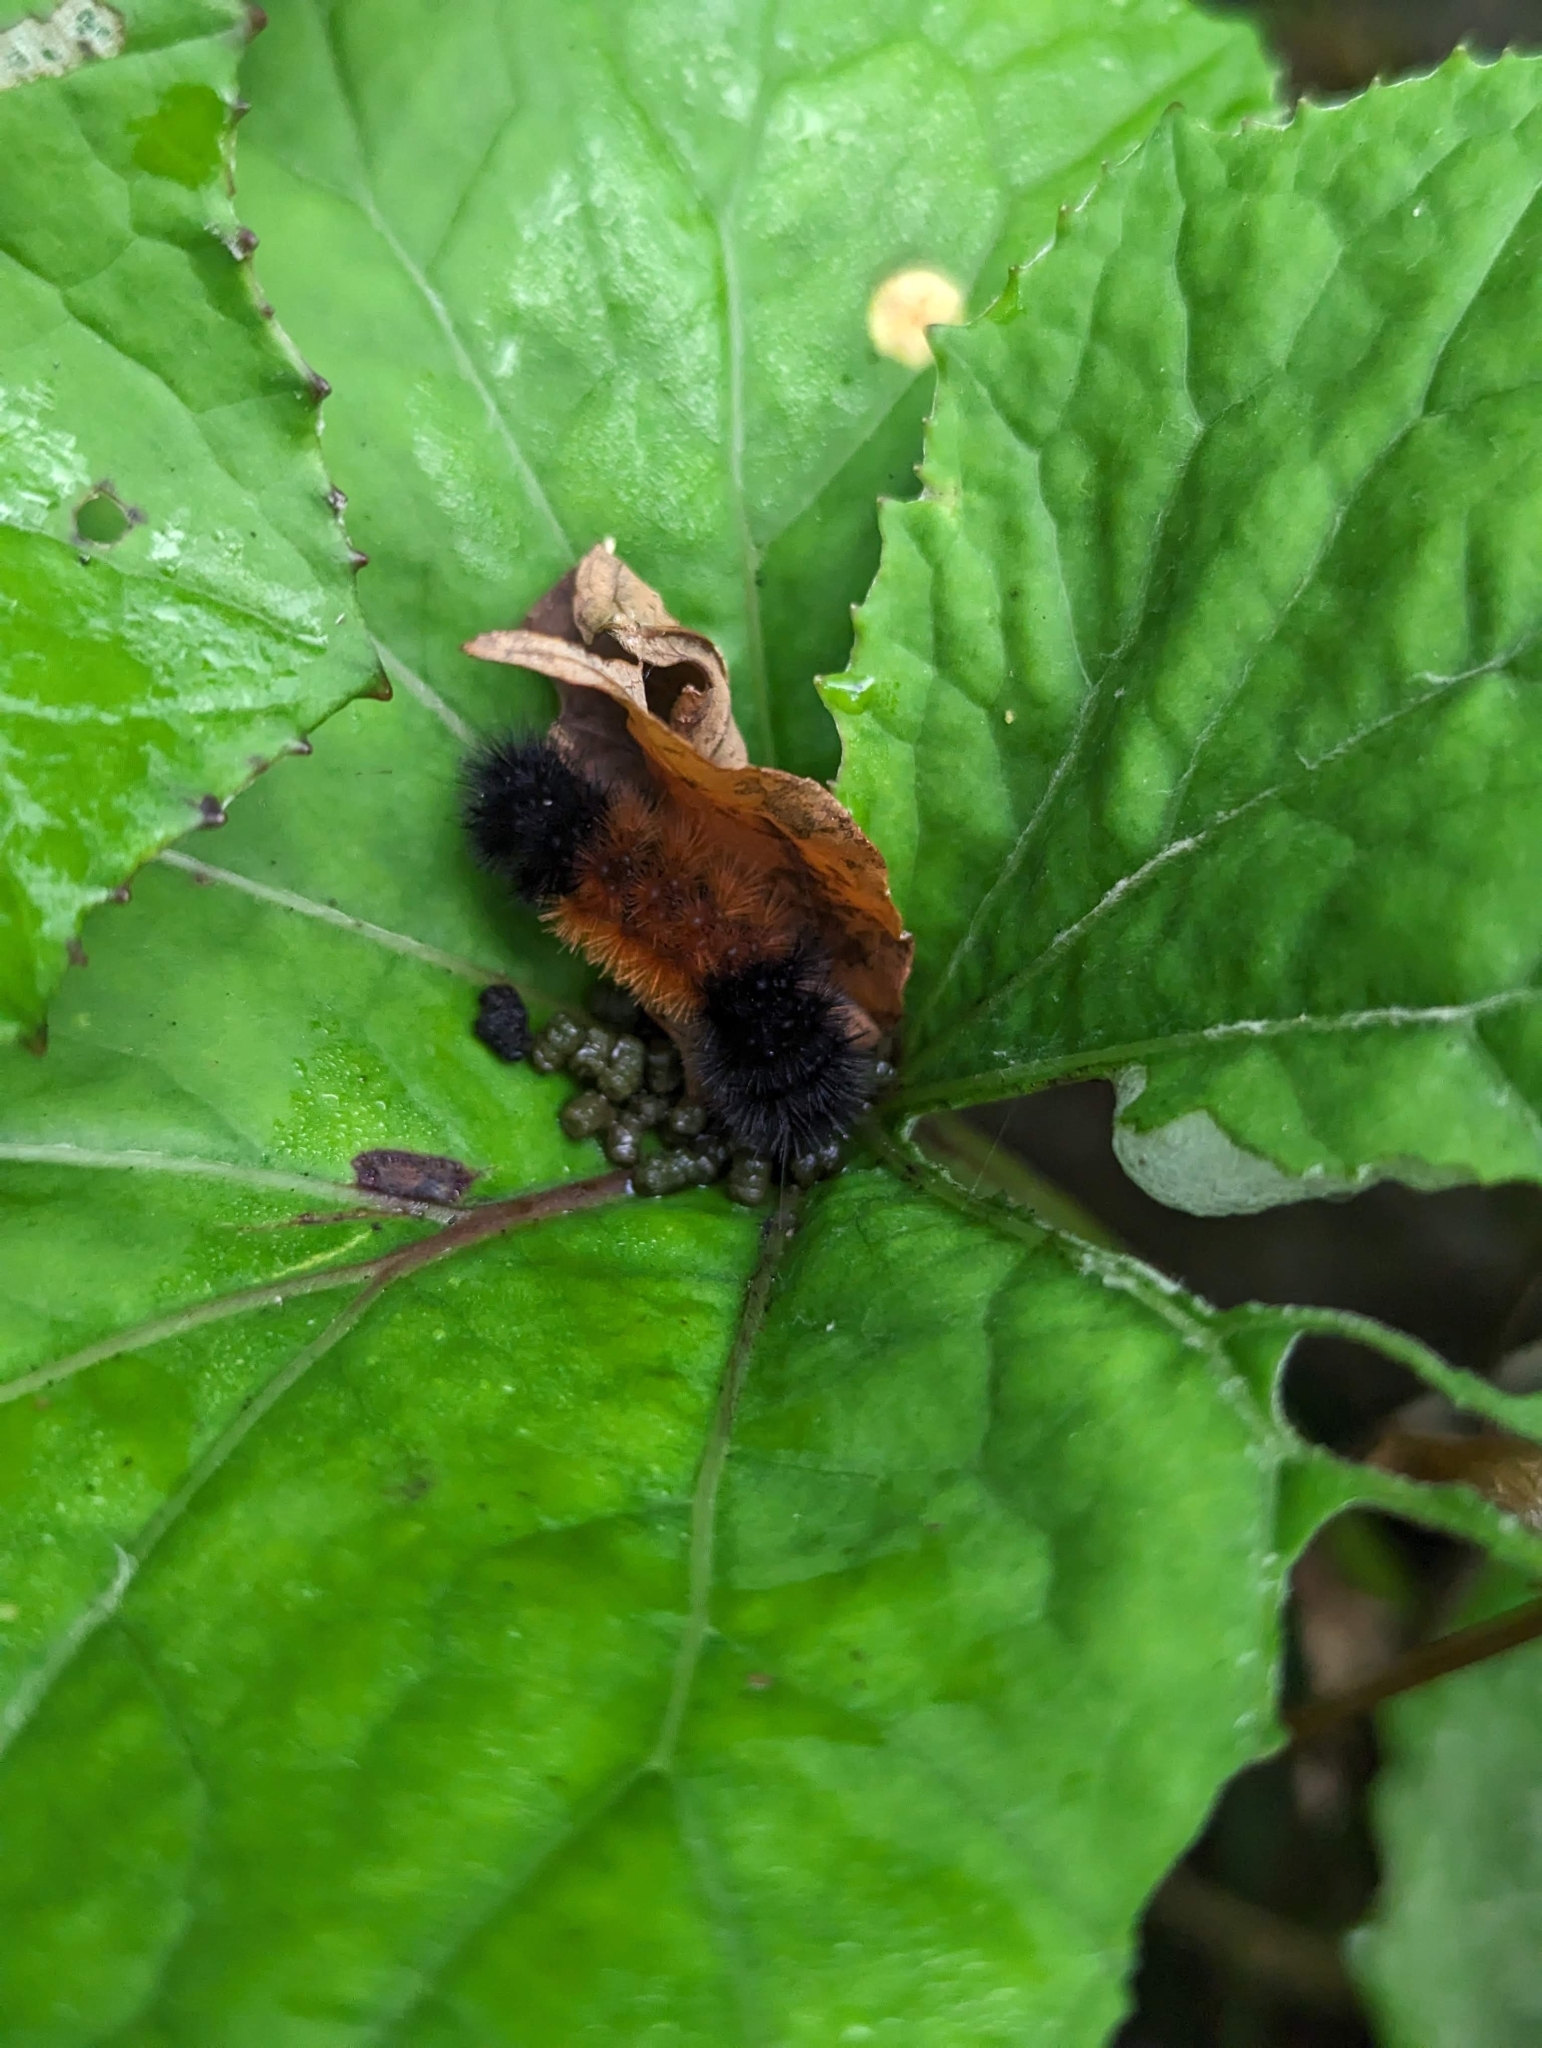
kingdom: Animalia
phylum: Arthropoda
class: Insecta
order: Lepidoptera
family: Erebidae
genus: Pyrrharctia
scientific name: Pyrrharctia isabella
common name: Isabella tiger moth
